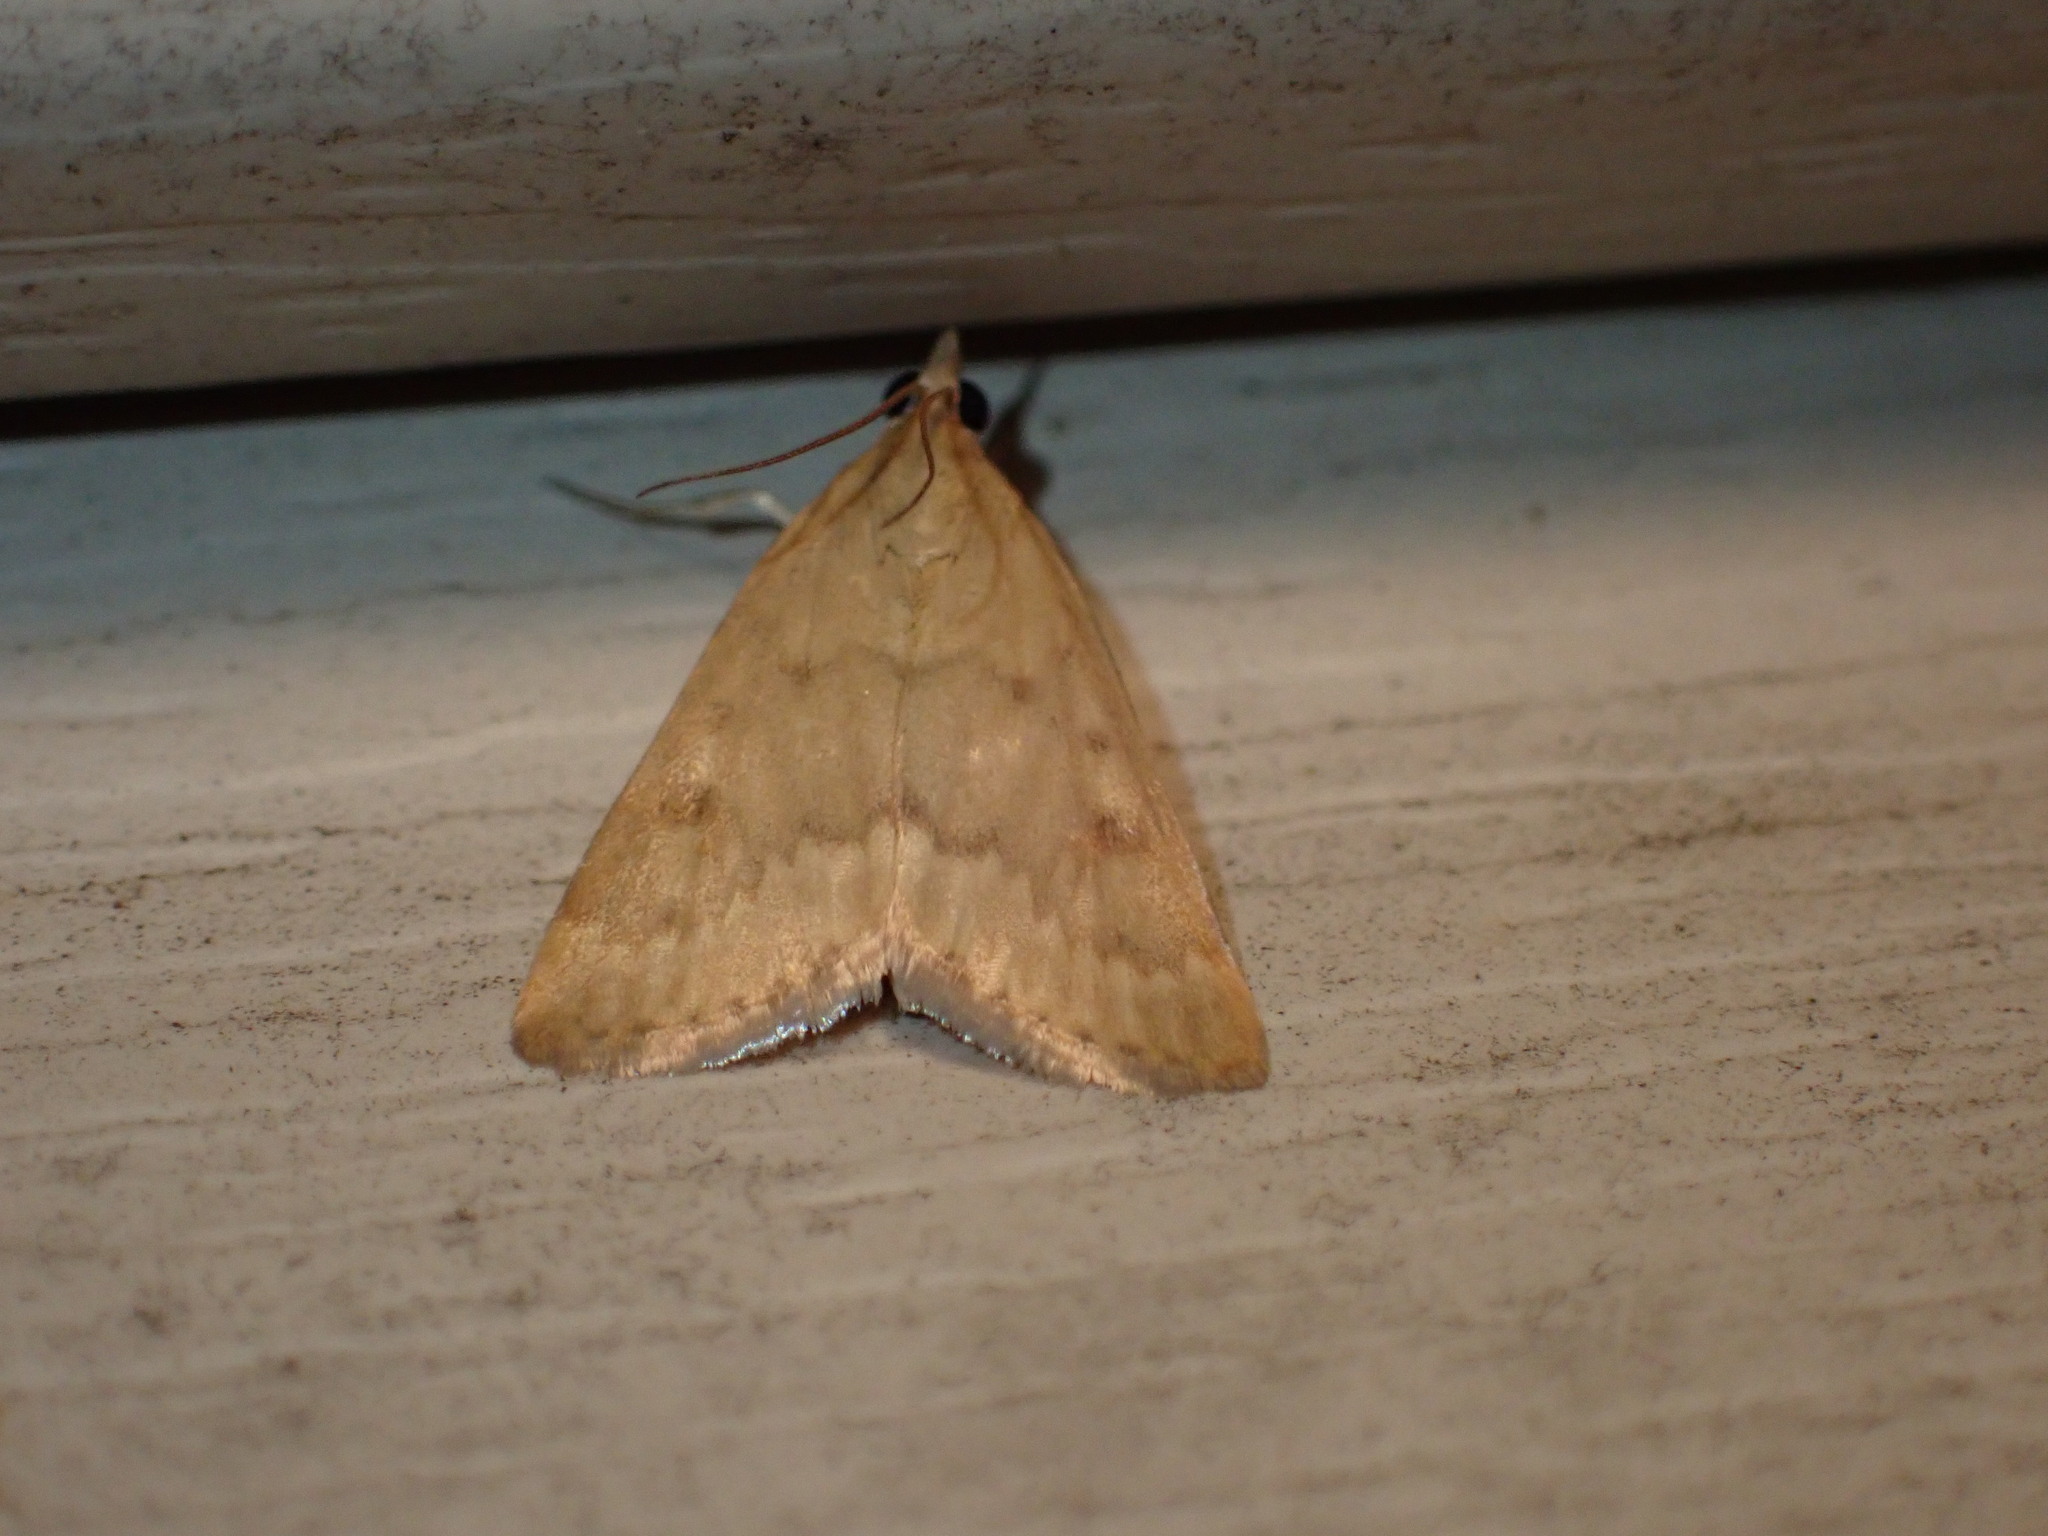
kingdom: Animalia
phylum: Arthropoda
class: Insecta
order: Lepidoptera
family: Crambidae
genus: Achyra
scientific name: Achyra rantalis
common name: Garden webworm
